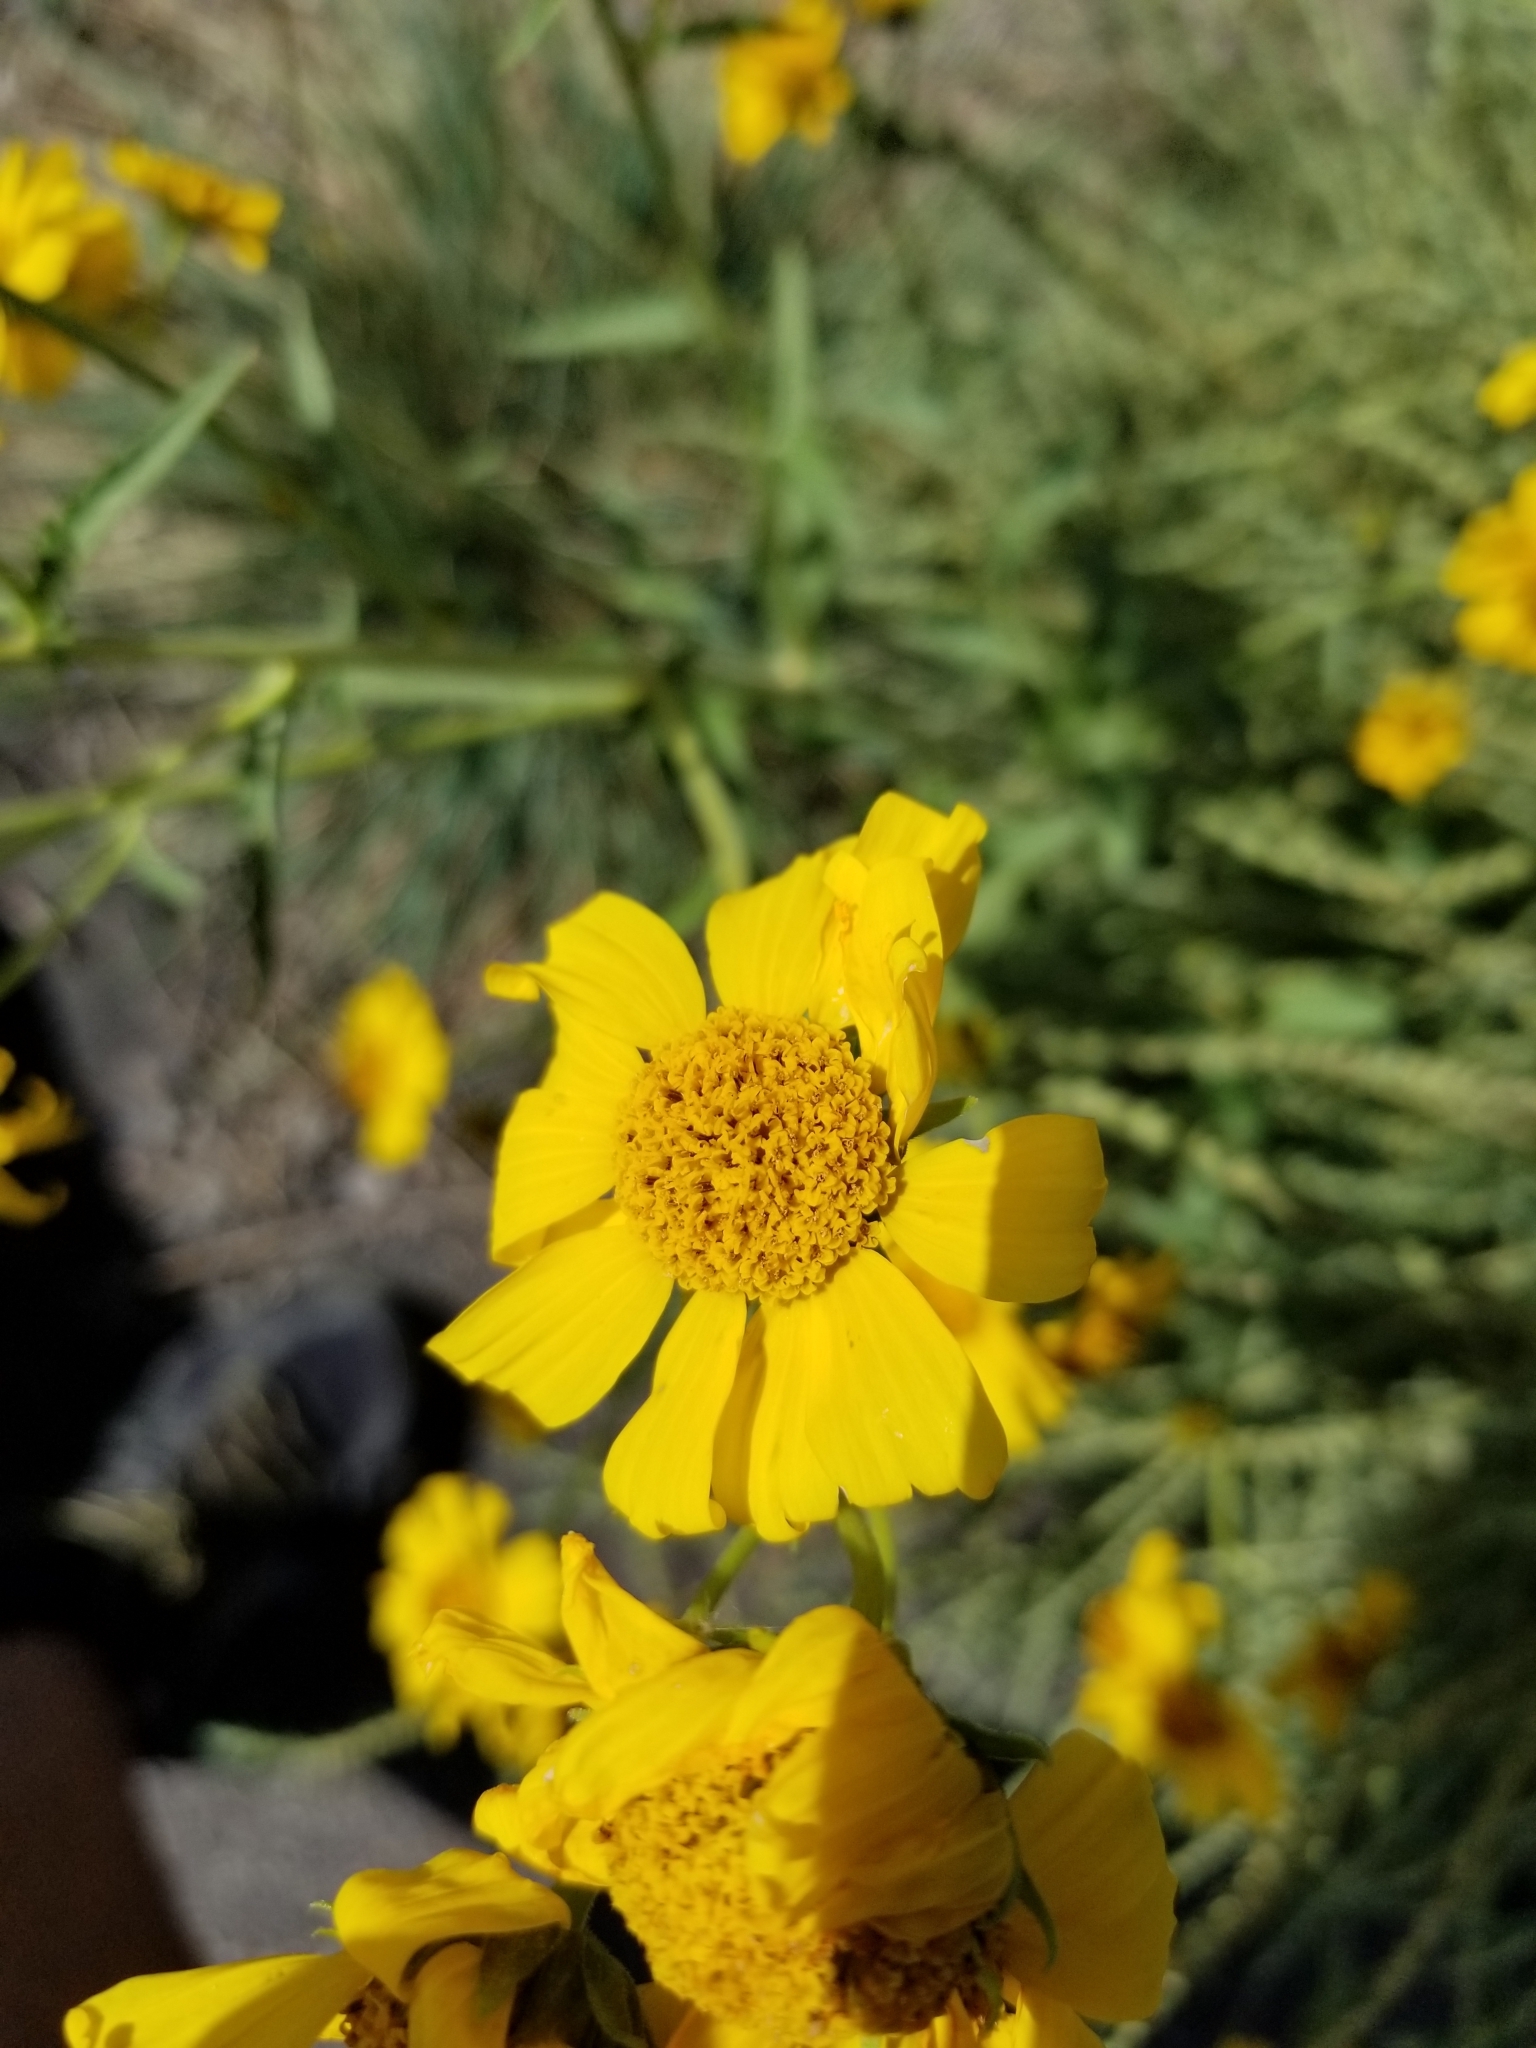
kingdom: Plantae
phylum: Tracheophyta
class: Magnoliopsida
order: Asterales
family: Asteraceae
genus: Helianthus
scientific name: Helianthus annuus
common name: Sunflower
